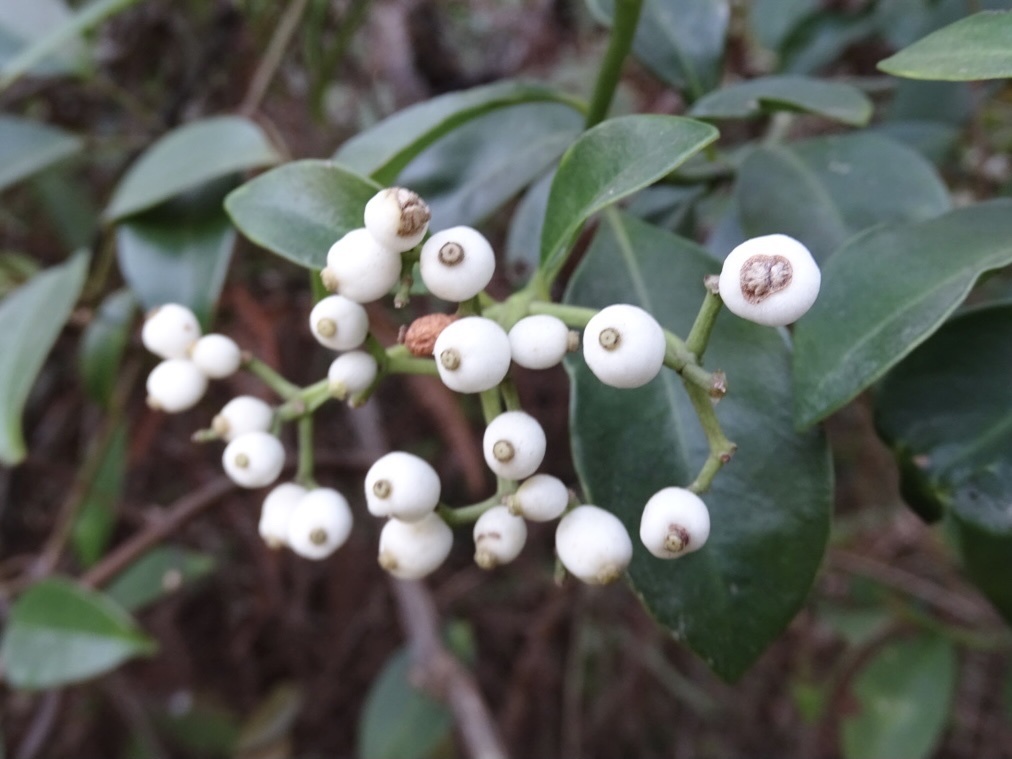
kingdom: Plantae
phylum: Tracheophyta
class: Magnoliopsida
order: Gentianales
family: Rubiaceae
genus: Psychotria
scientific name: Psychotria serpens
